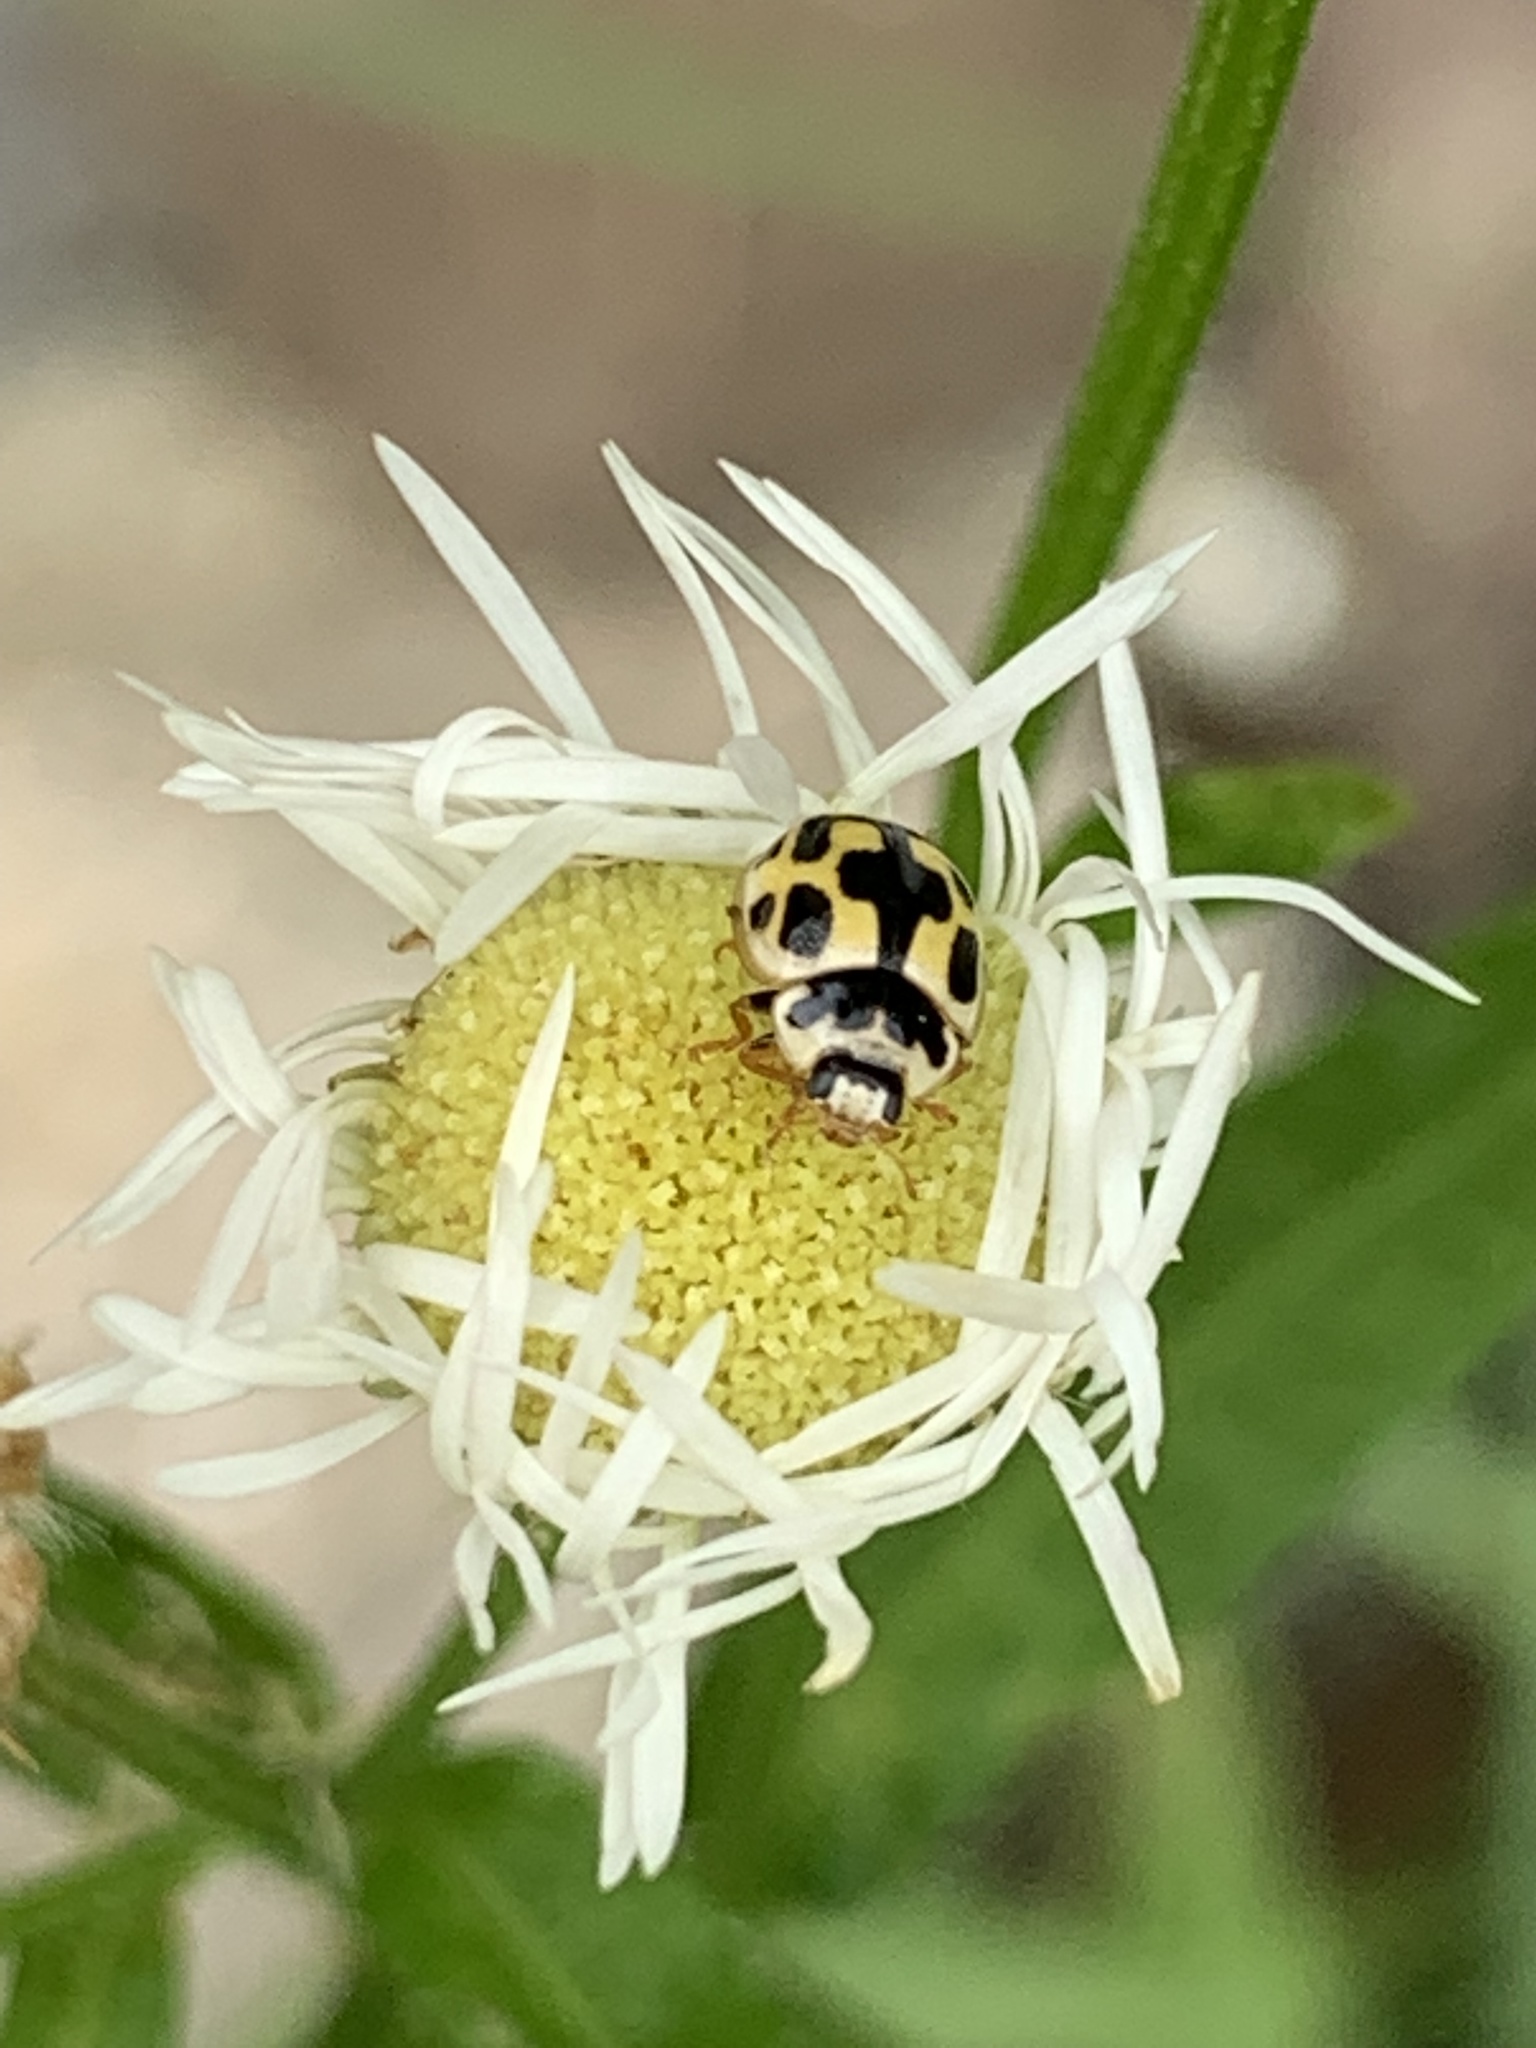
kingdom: Animalia
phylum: Arthropoda
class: Insecta
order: Coleoptera
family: Coccinellidae
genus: Propylaea
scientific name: Propylaea quatuordecimpunctata
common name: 14-spotted ladybird beetle
